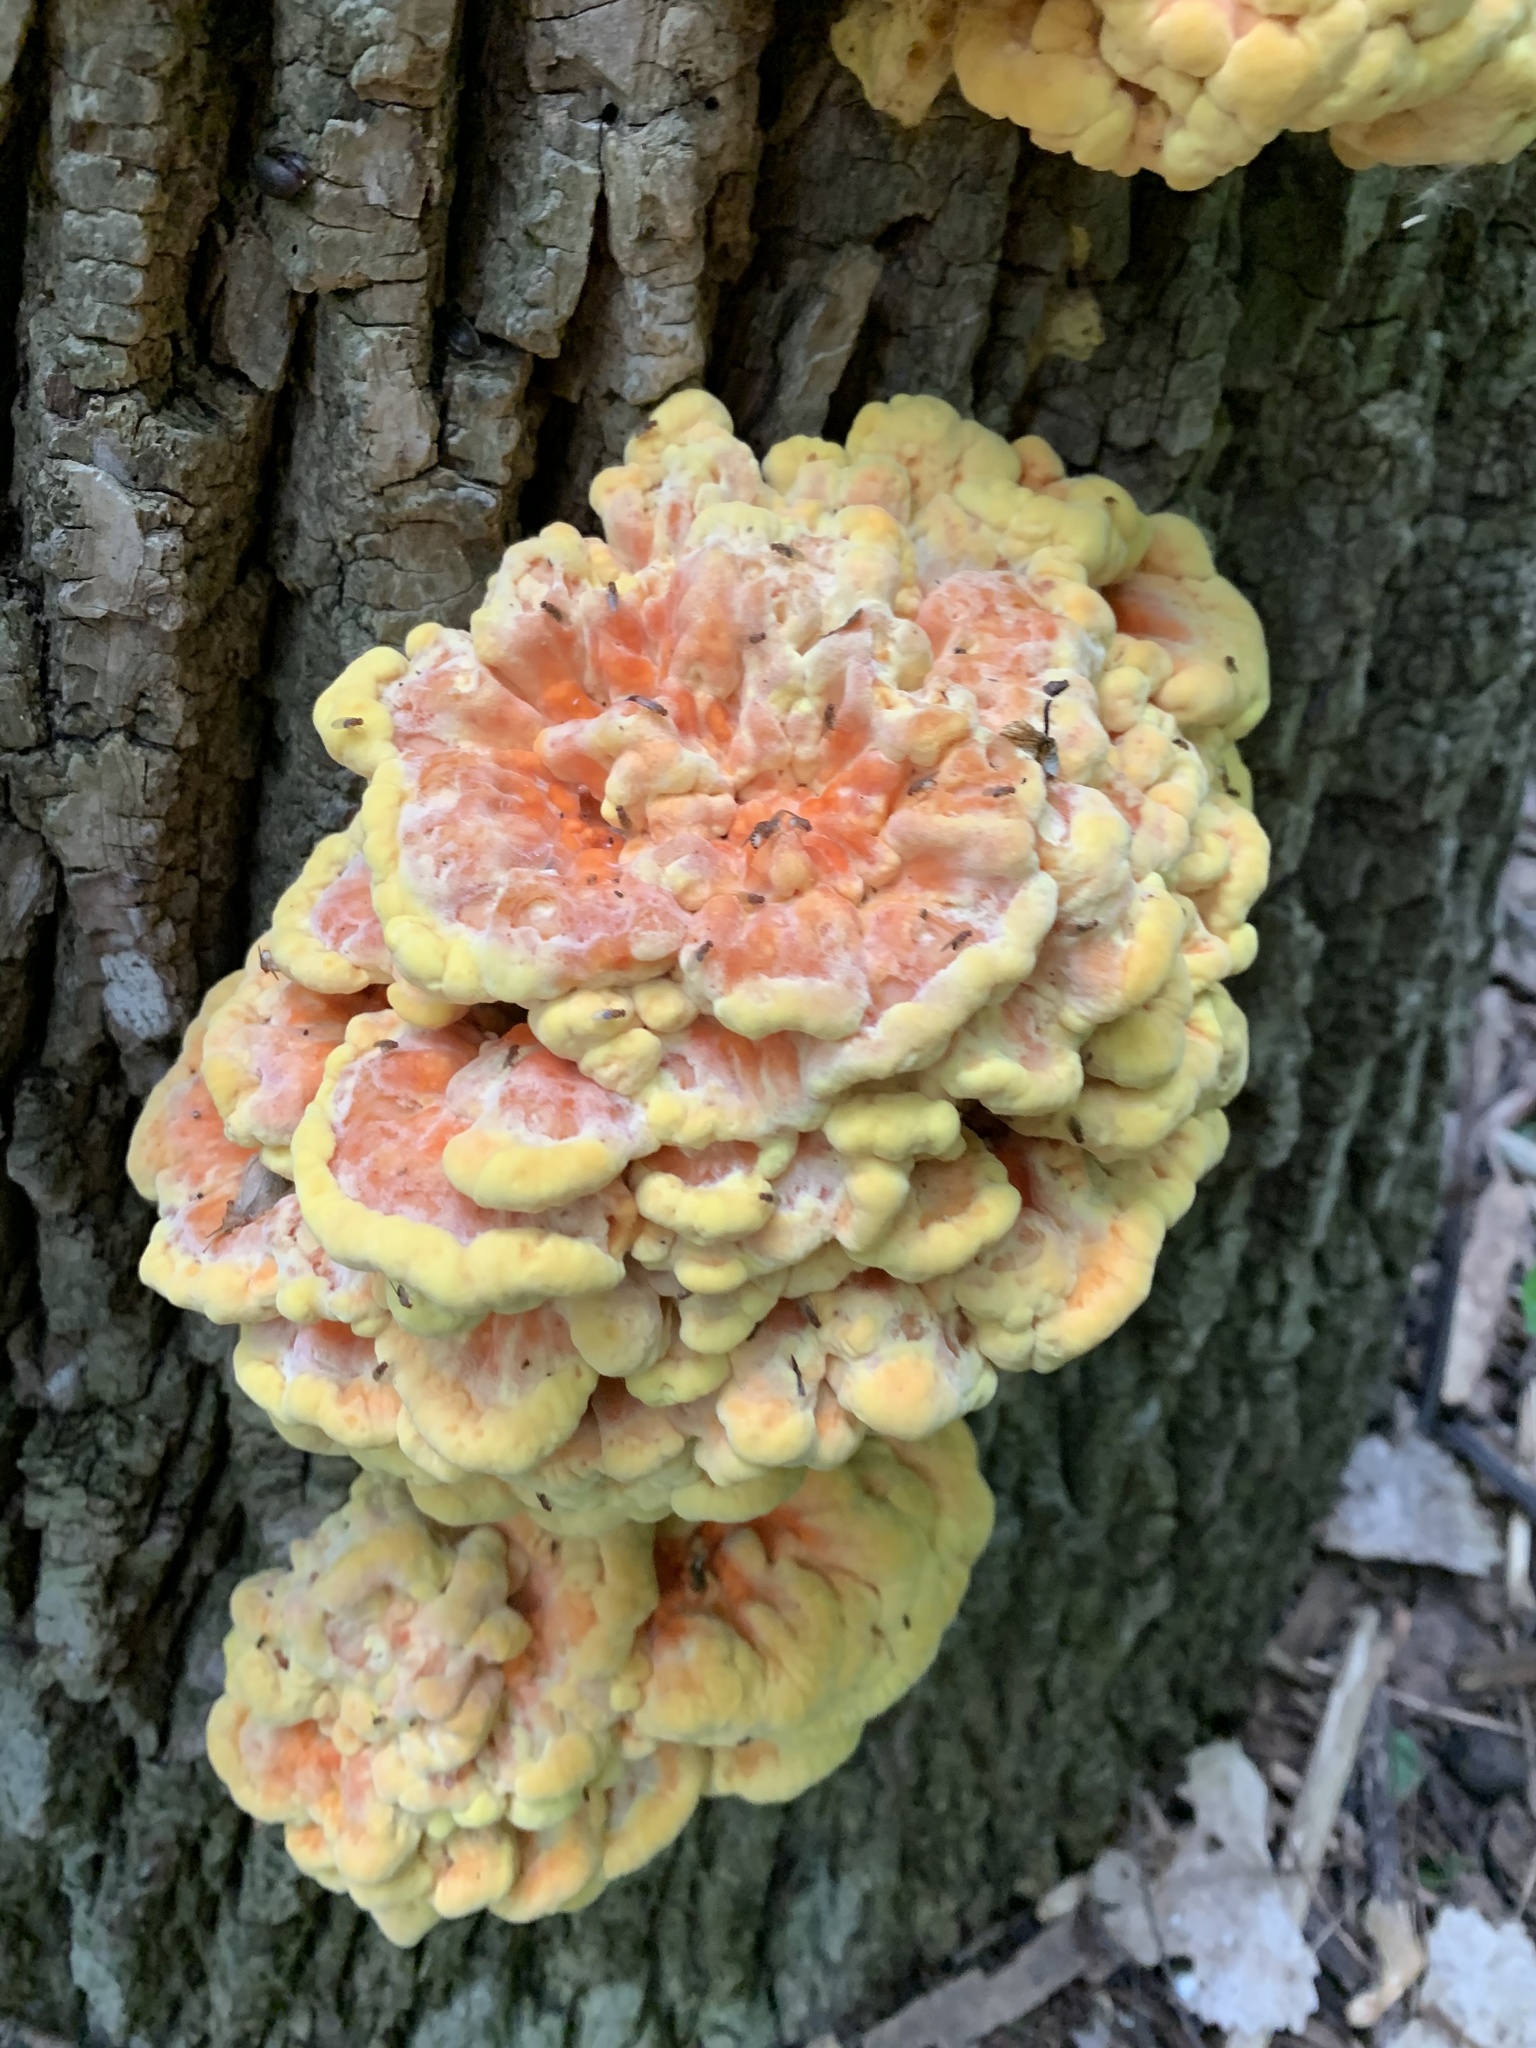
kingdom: Fungi
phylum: Basidiomycota
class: Agaricomycetes
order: Polyporales
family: Laetiporaceae
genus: Laetiporus
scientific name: Laetiporus sulphureus
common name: Chicken of the woods
